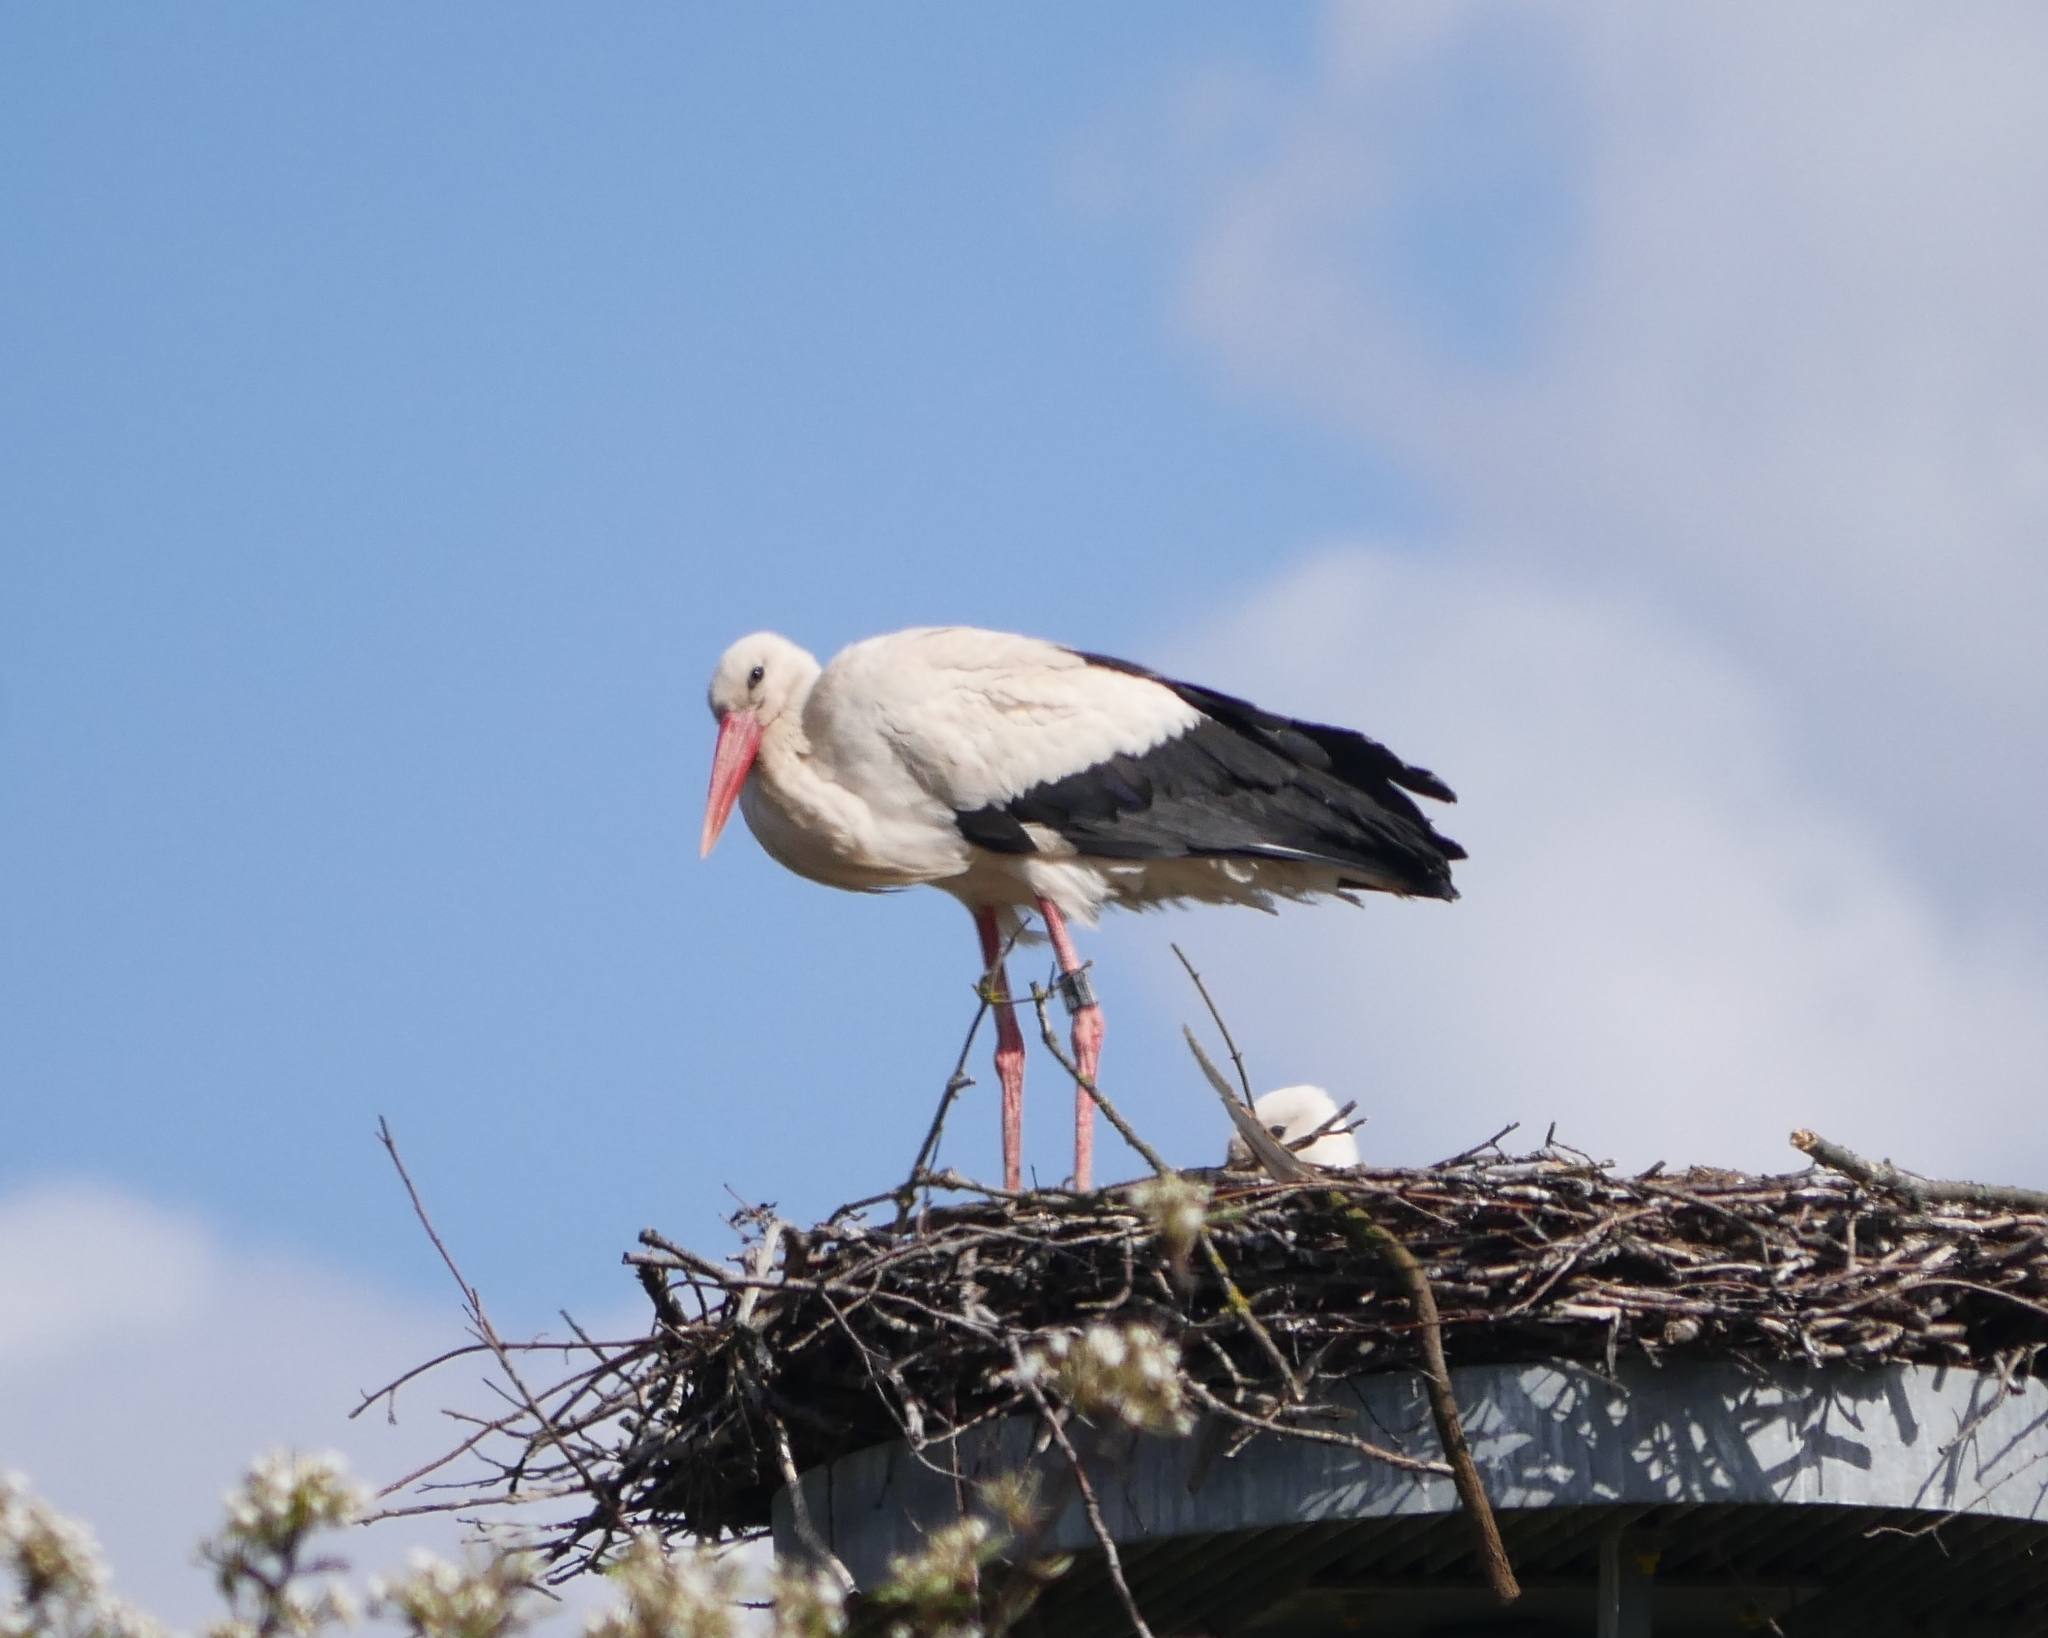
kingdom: Animalia
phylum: Chordata
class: Aves
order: Ciconiiformes
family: Ciconiidae
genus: Ciconia
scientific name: Ciconia ciconia
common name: White stork
